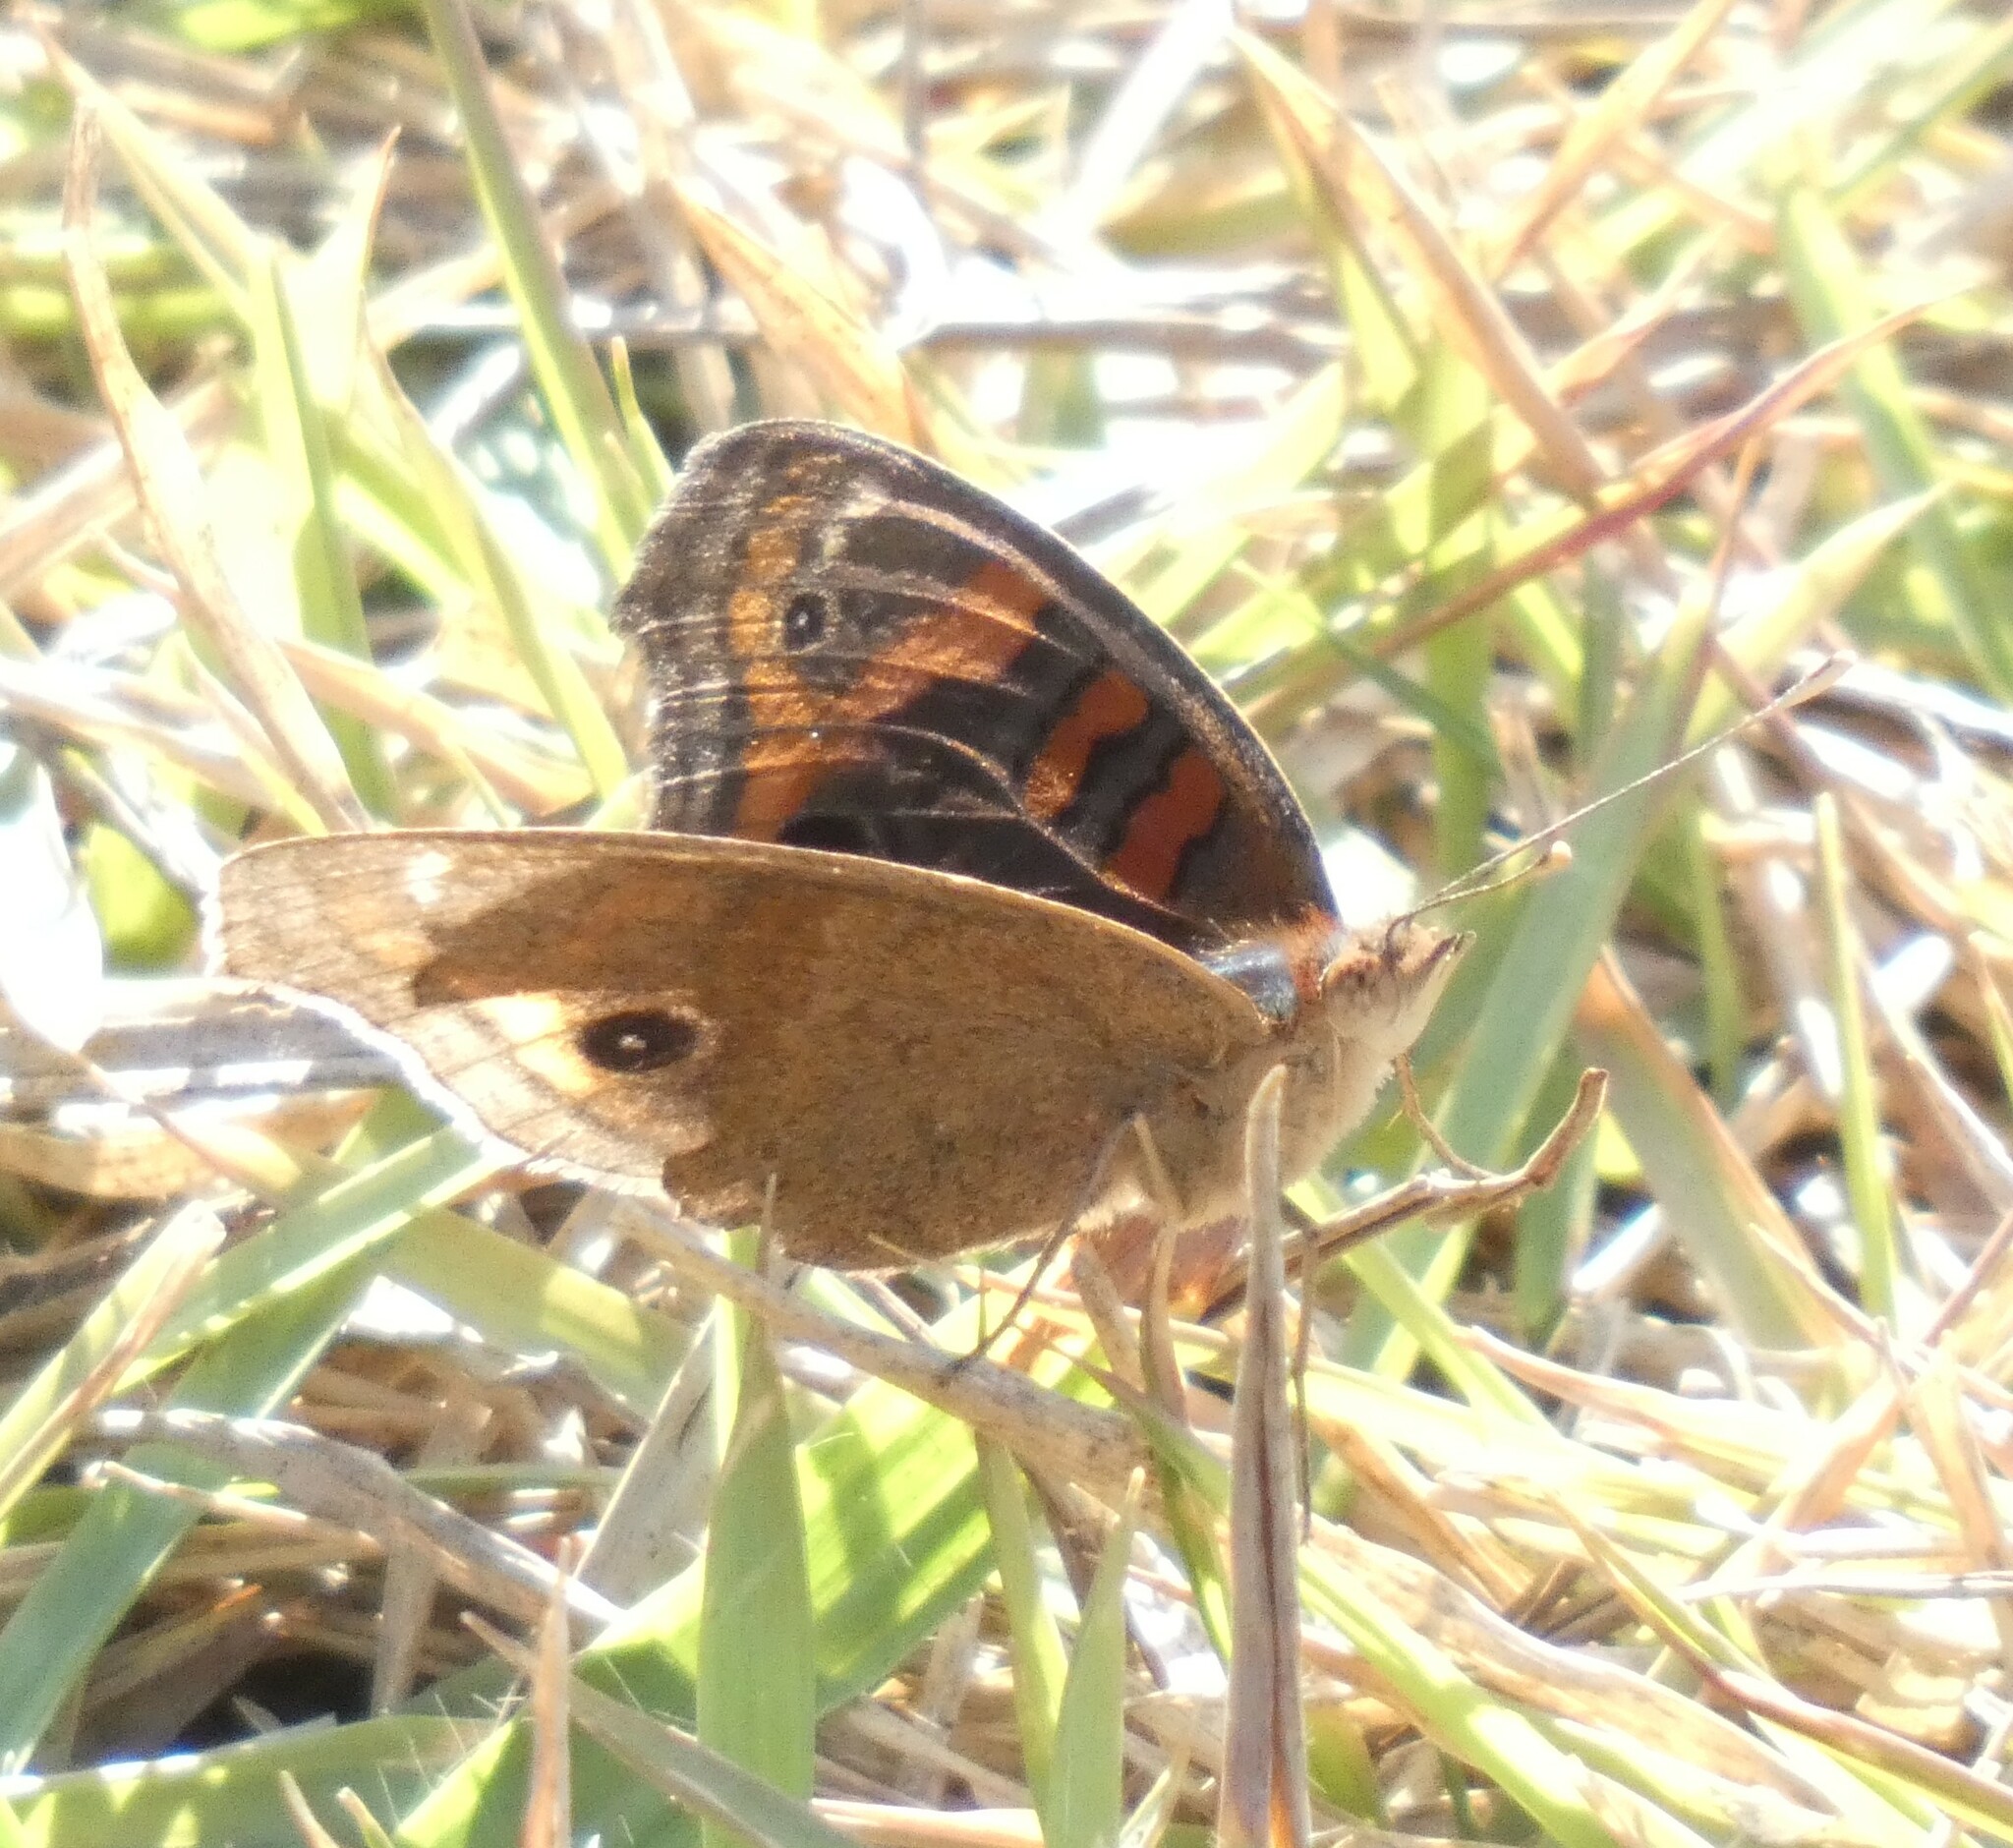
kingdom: Animalia
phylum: Arthropoda
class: Insecta
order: Lepidoptera
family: Nymphalidae
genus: Junonia
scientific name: Junonia evarete
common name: Black mangrove buckeye
